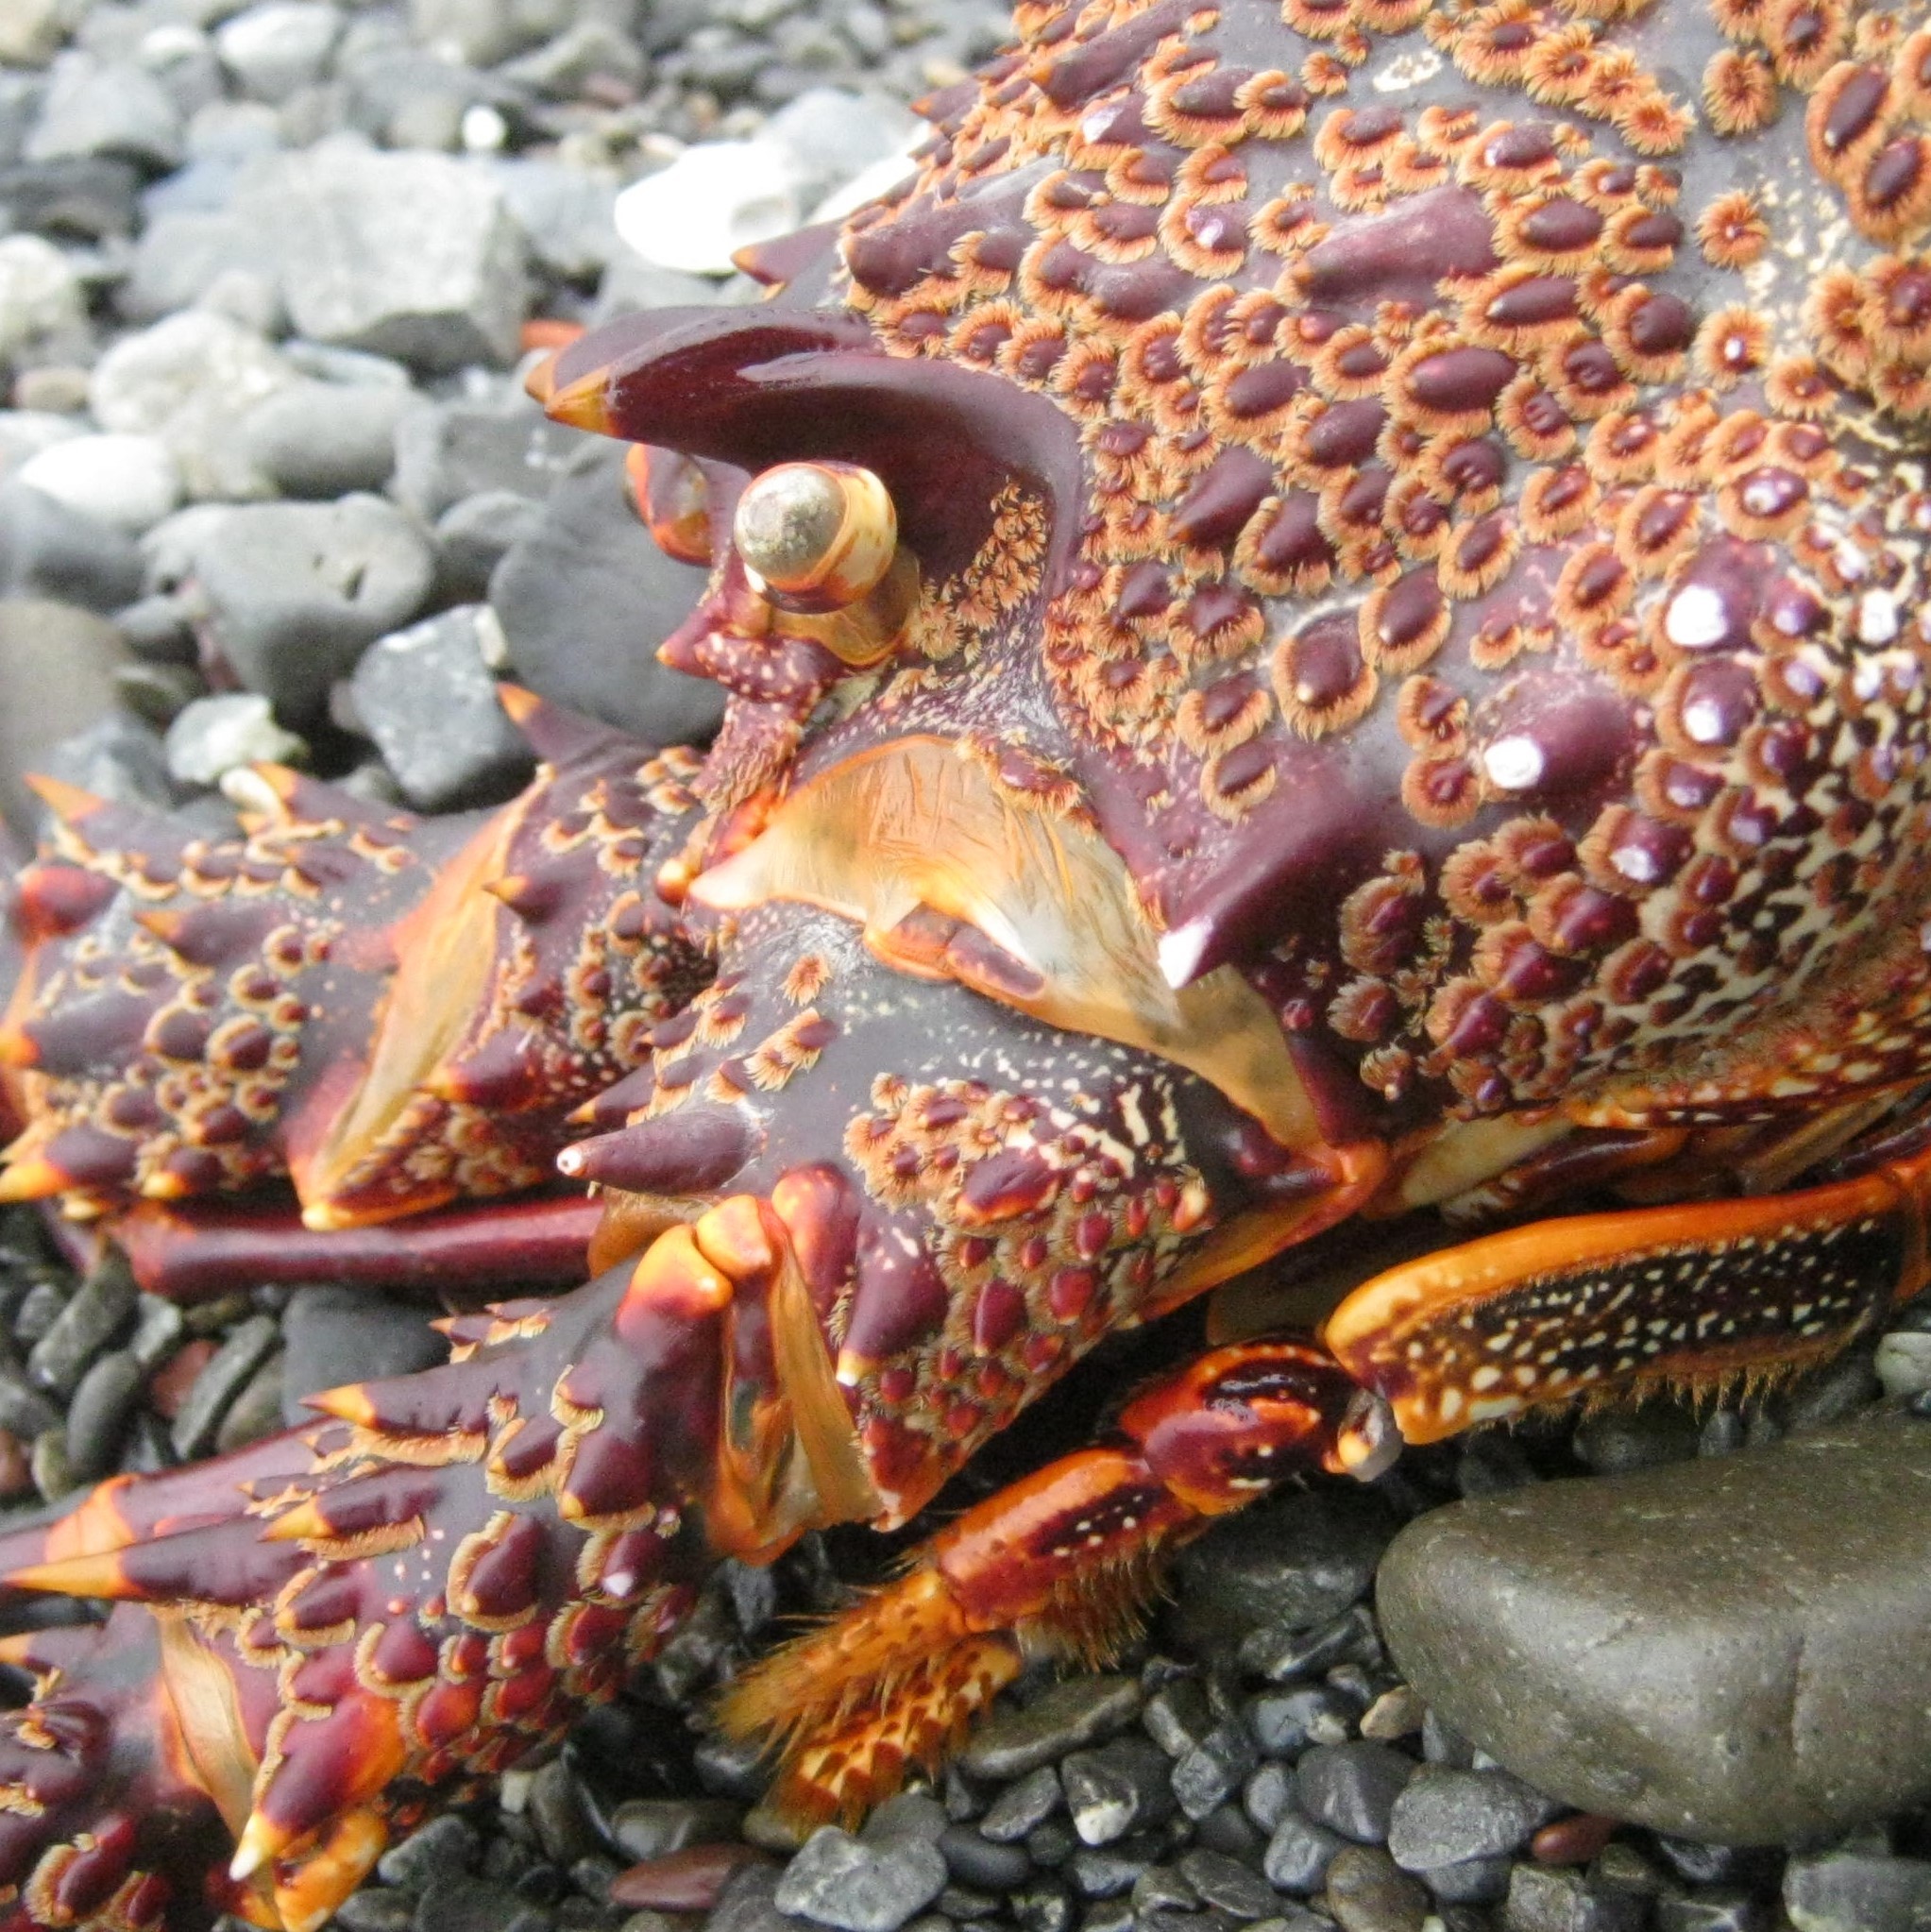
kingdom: Animalia
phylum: Arthropoda
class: Malacostraca
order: Decapoda
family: Palinuridae
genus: Jasus
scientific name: Jasus edwardsii
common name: Red rock lobster
